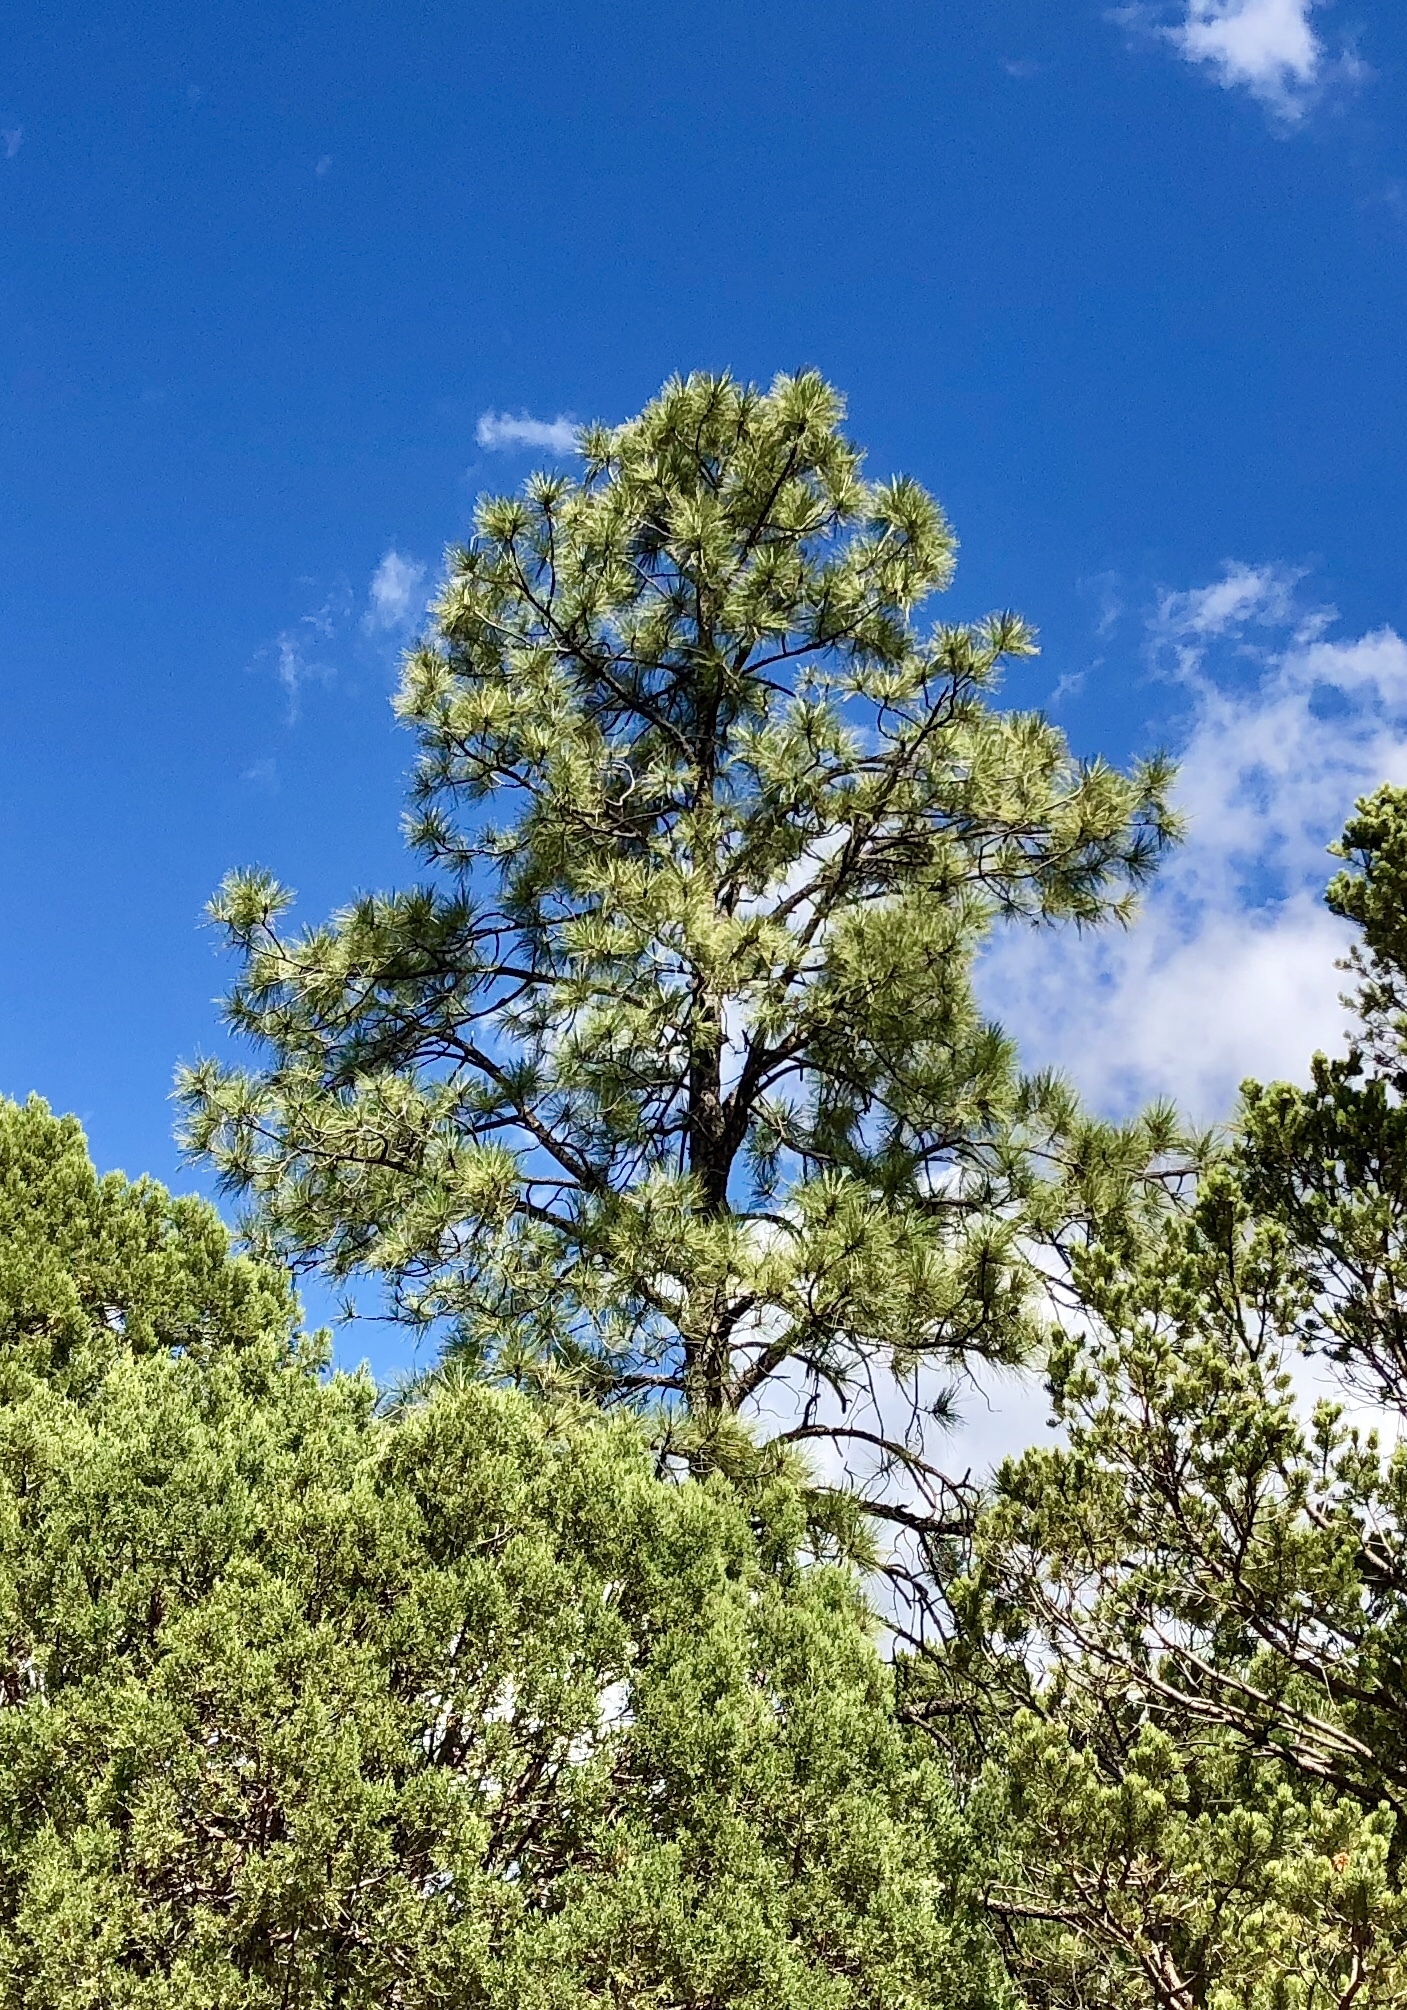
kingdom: Plantae
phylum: Tracheophyta
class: Pinopsida
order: Pinales
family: Pinaceae
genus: Pinus
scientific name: Pinus ponderosa
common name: Western yellow-pine
